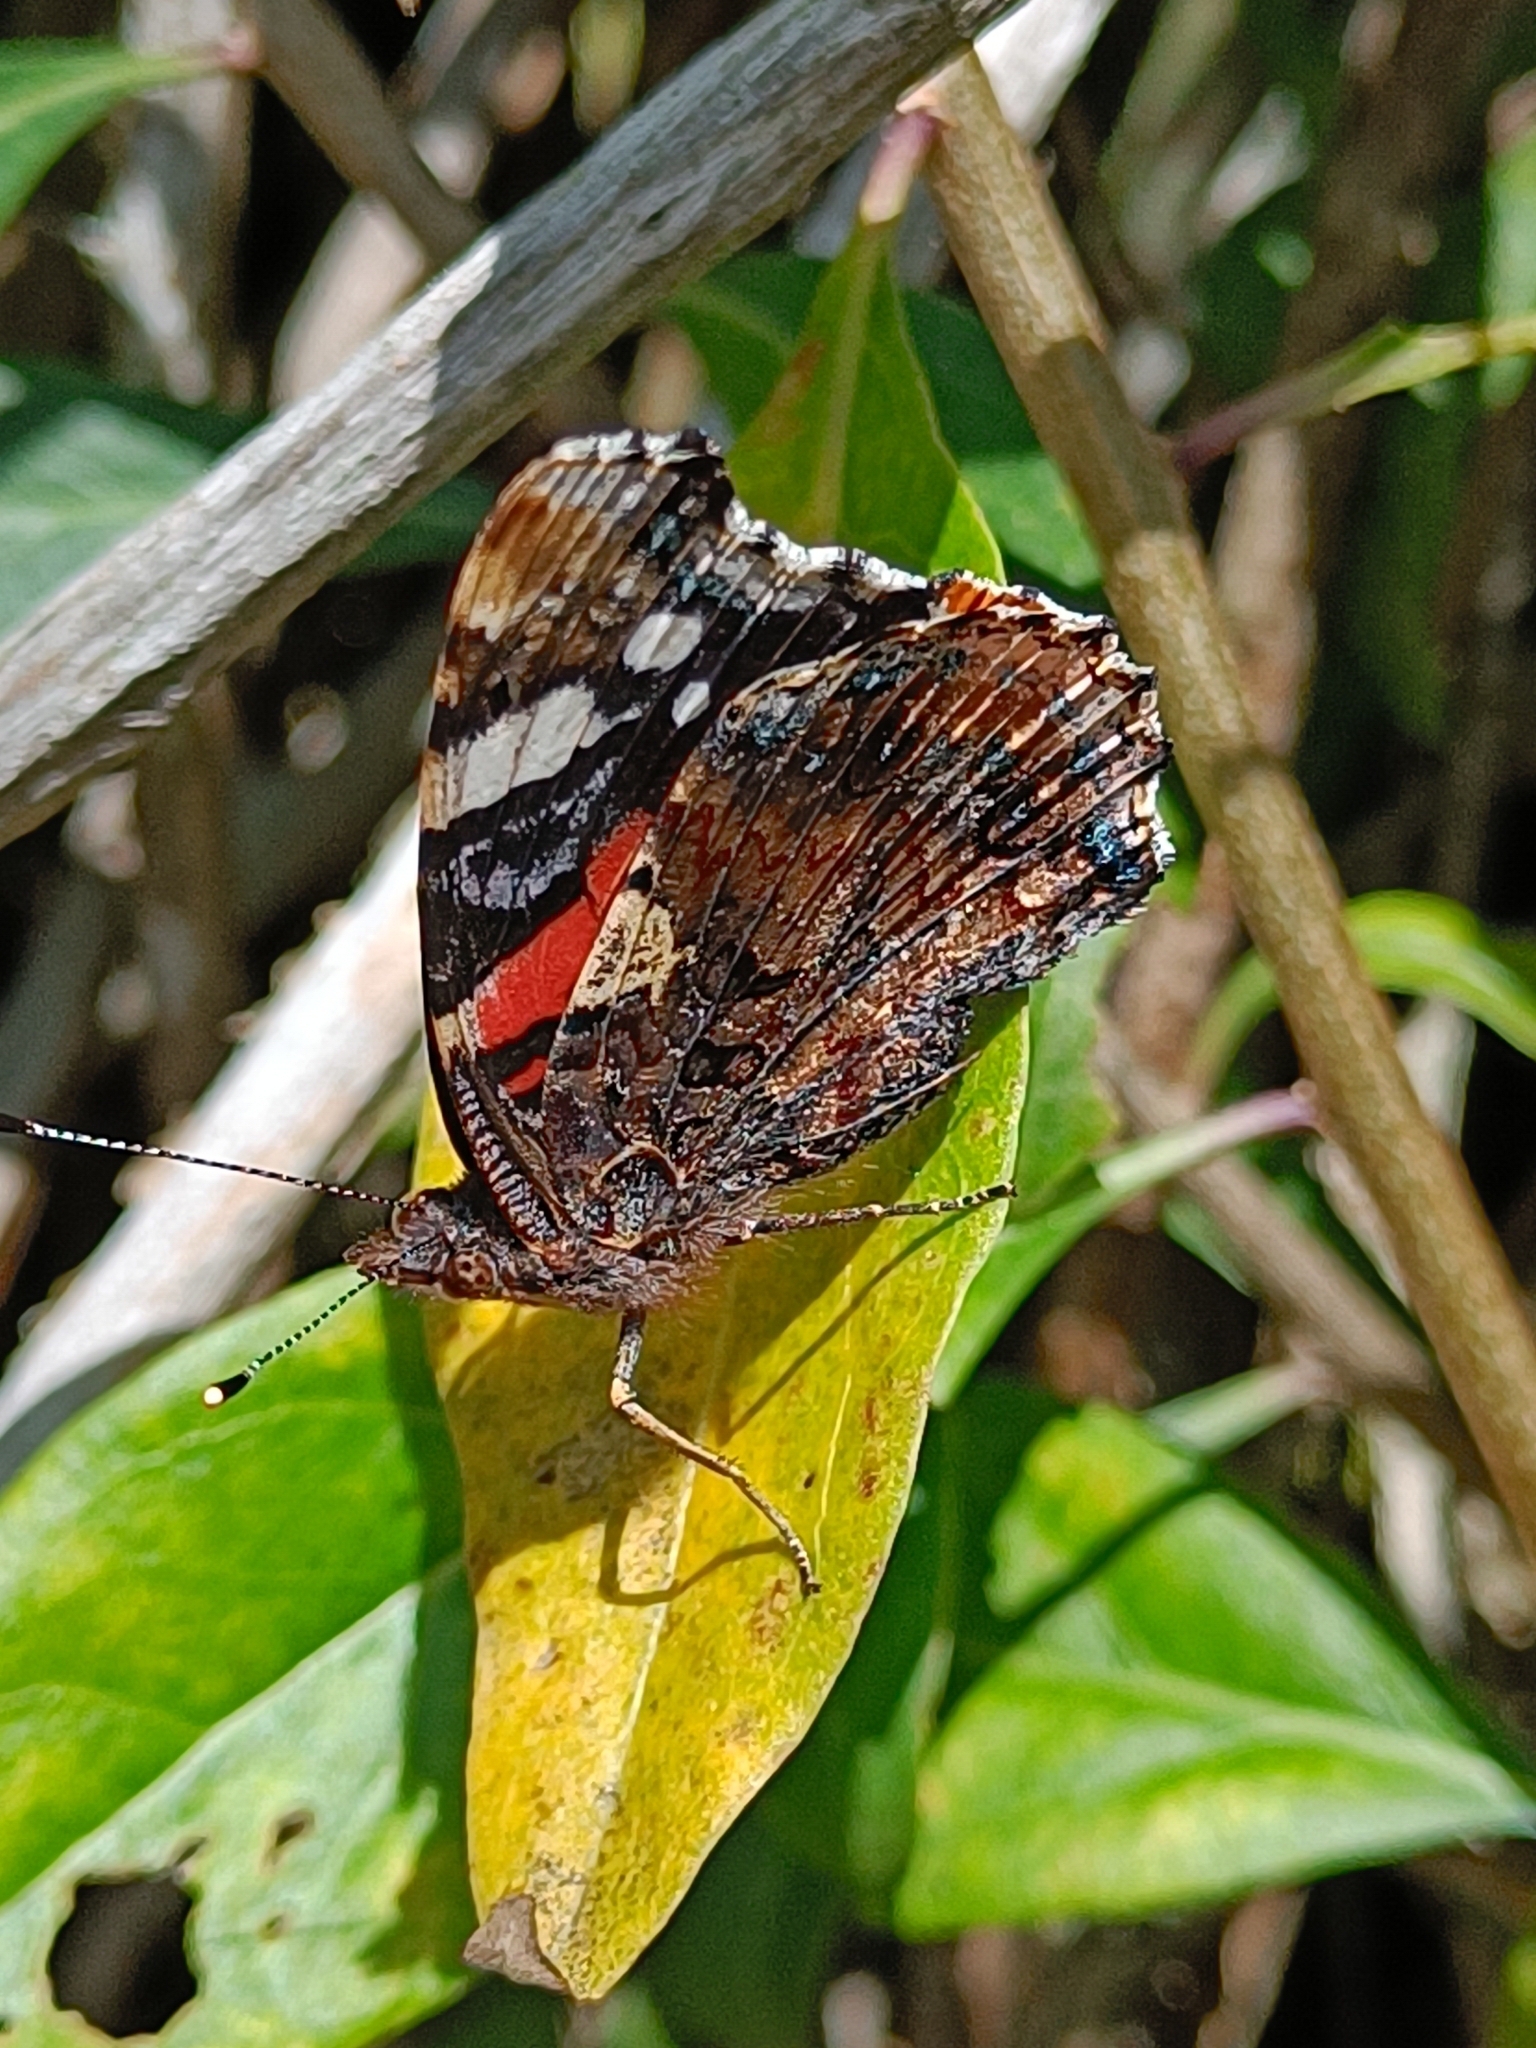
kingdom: Animalia
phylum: Arthropoda
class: Insecta
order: Lepidoptera
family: Nymphalidae
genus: Vanessa
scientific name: Vanessa atalanta
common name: Red admiral
